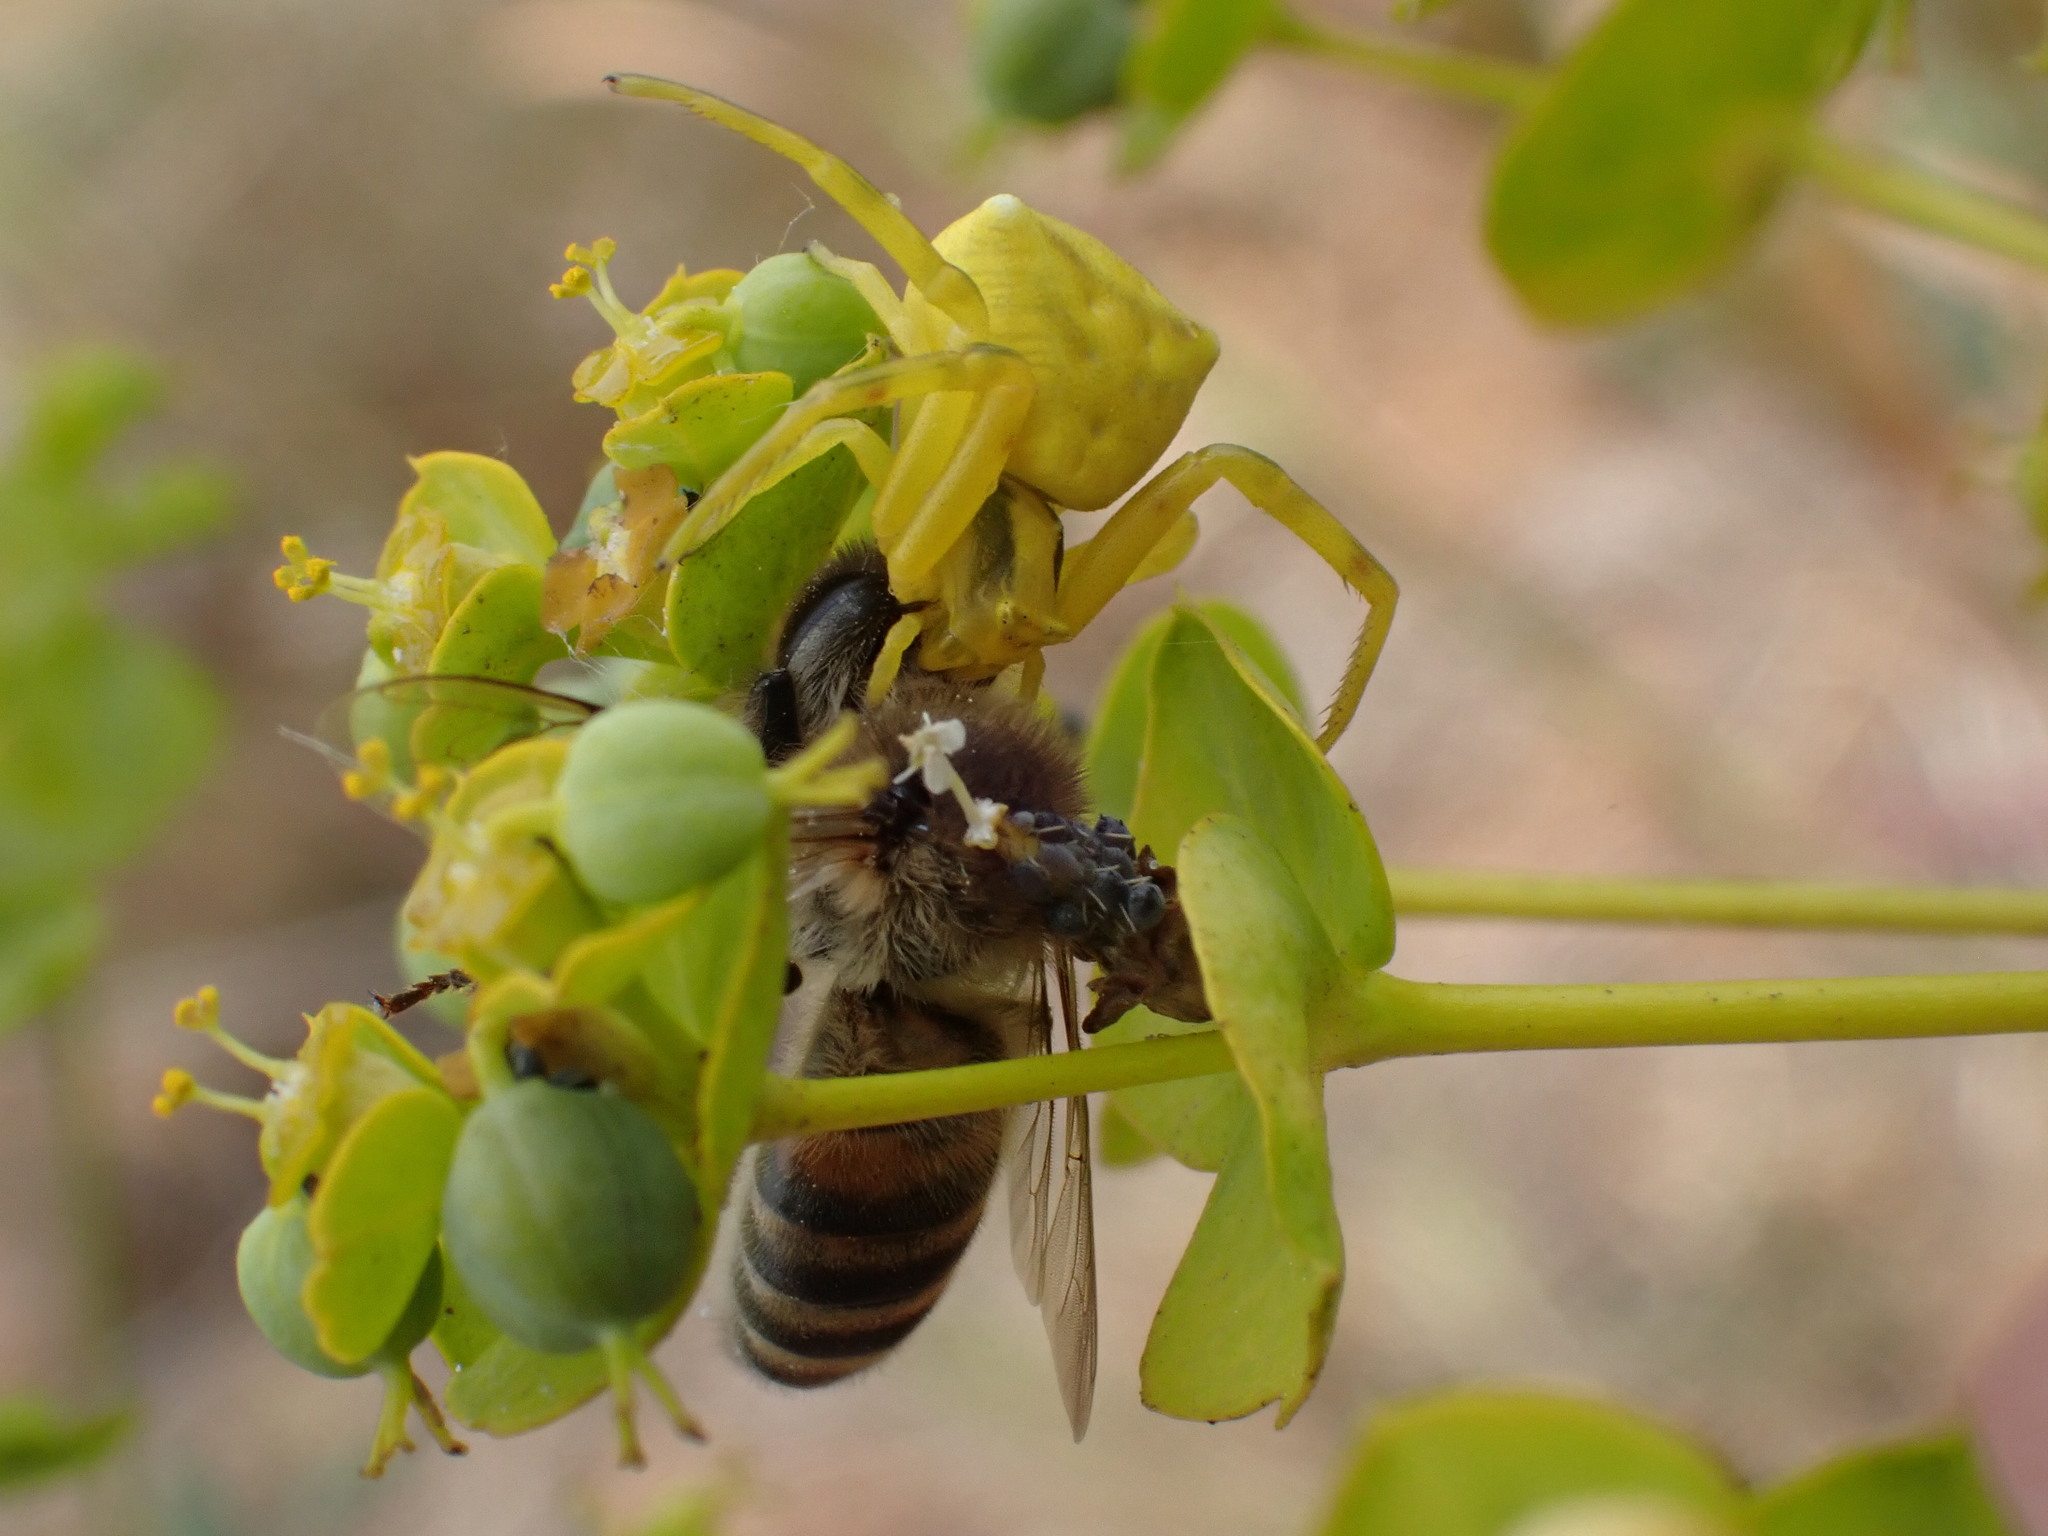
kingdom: Animalia
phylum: Arthropoda
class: Arachnida
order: Araneae
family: Thomisidae
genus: Thomisus
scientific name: Thomisus onustus
